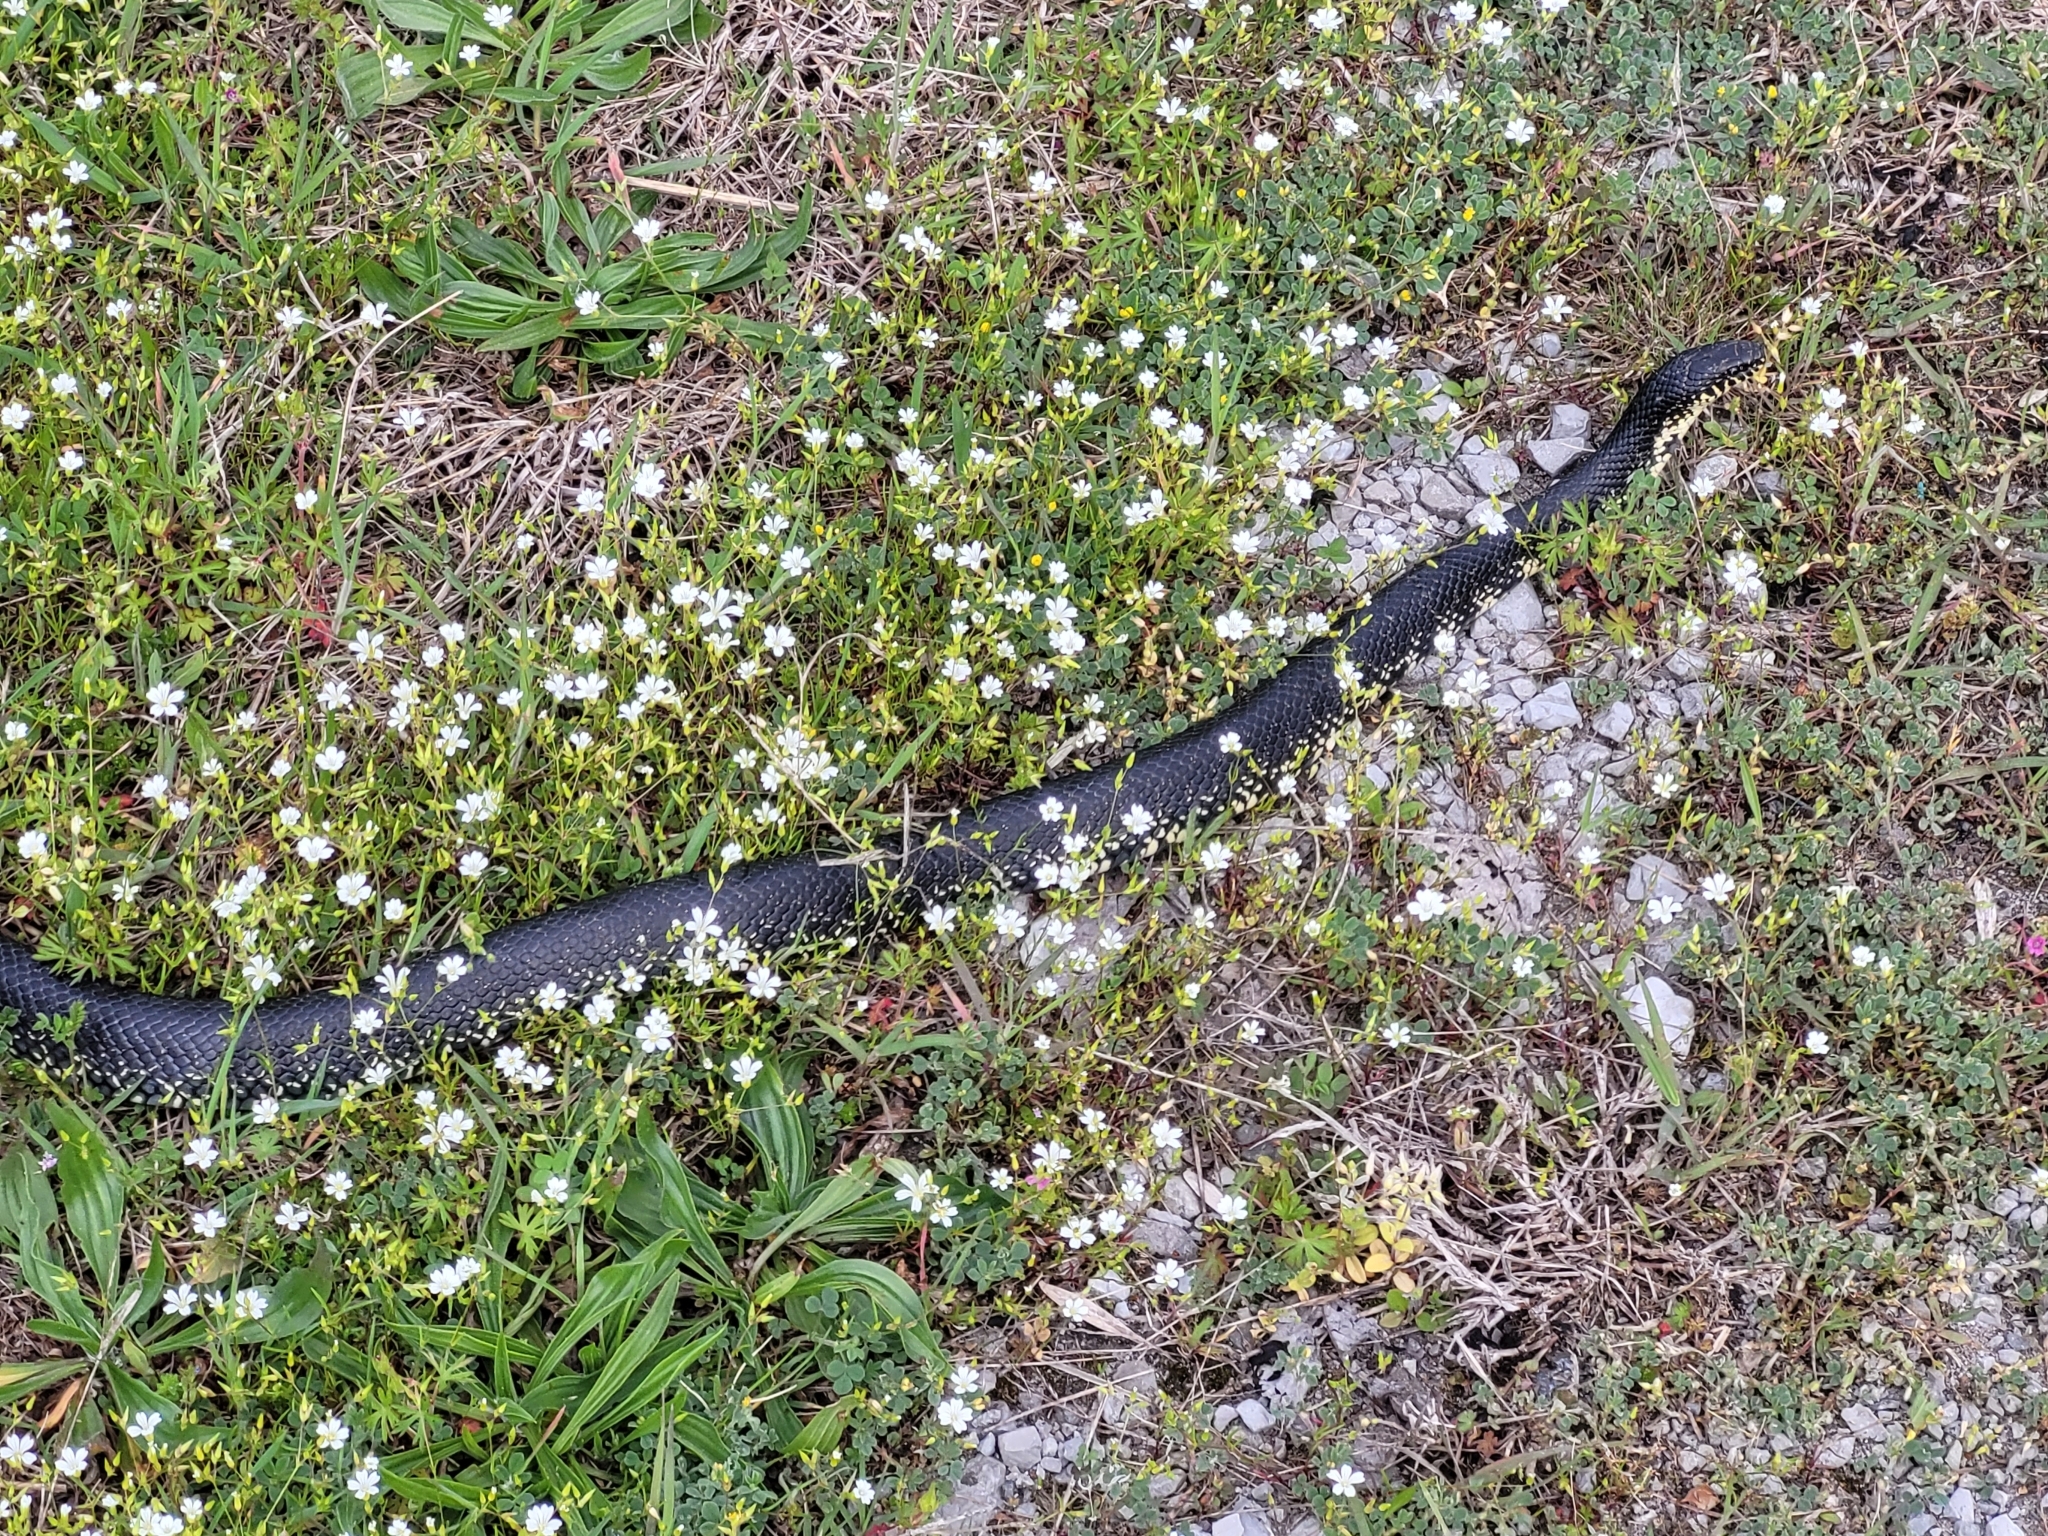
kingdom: Animalia
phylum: Chordata
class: Squamata
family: Colubridae
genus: Lampropeltis
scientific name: Lampropeltis nigra
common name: Black kingsnake
